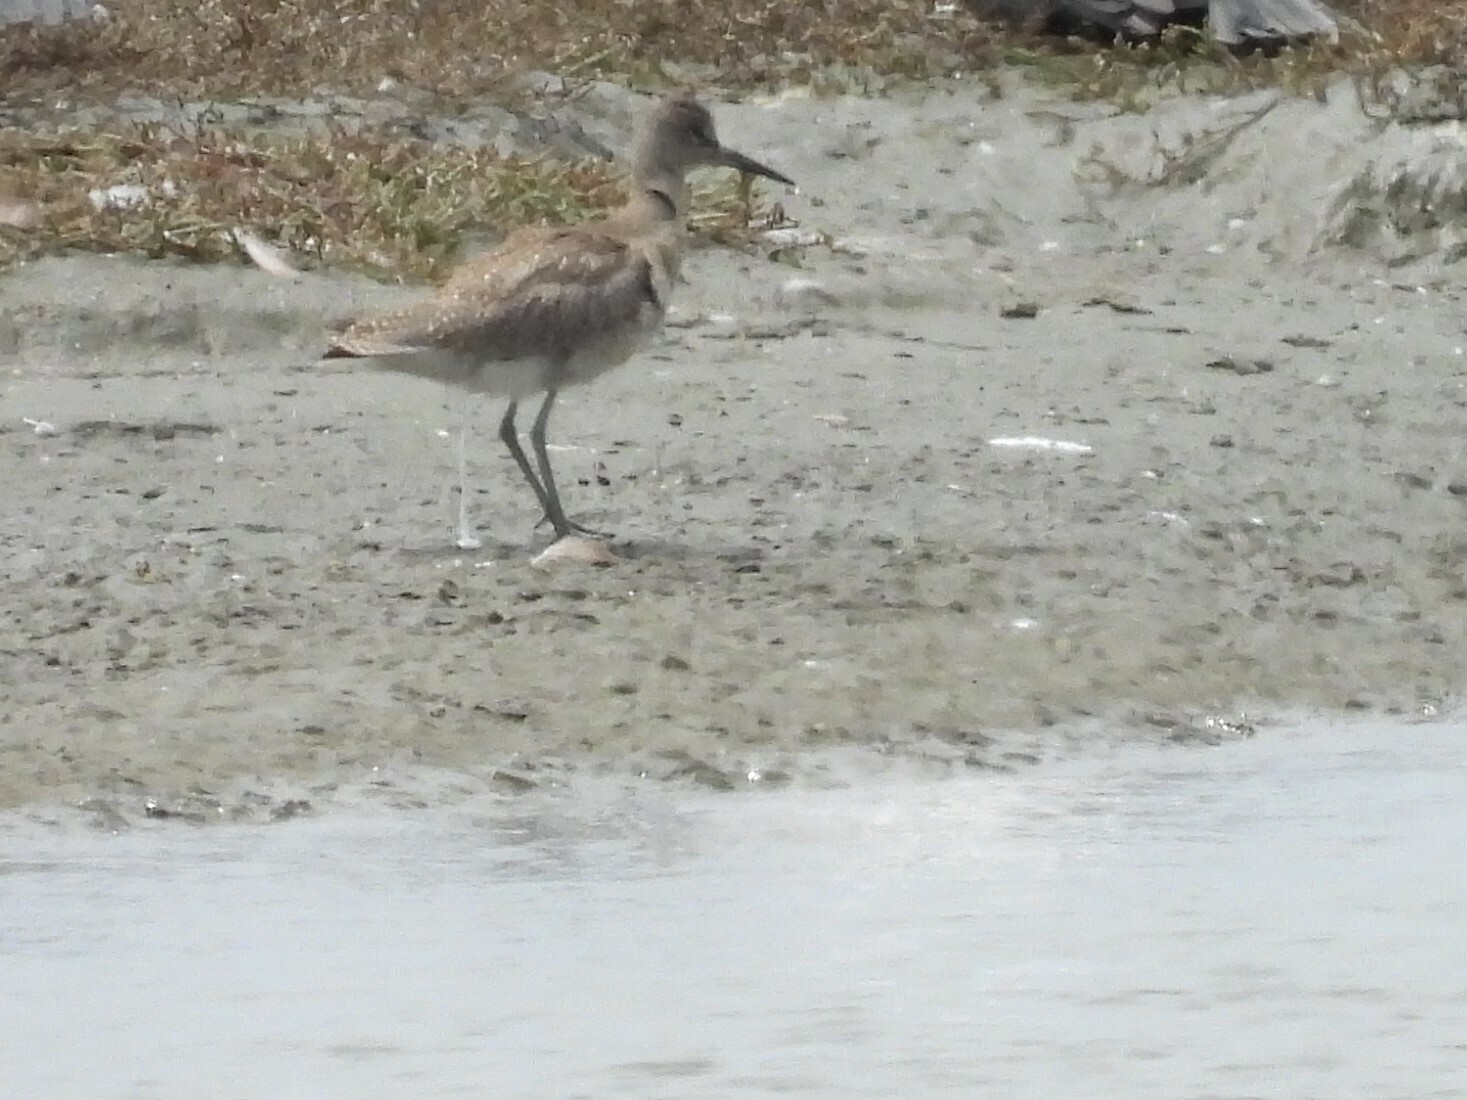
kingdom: Animalia
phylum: Chordata
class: Aves
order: Charadriiformes
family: Scolopacidae
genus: Tringa
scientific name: Tringa semipalmata
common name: Willet
